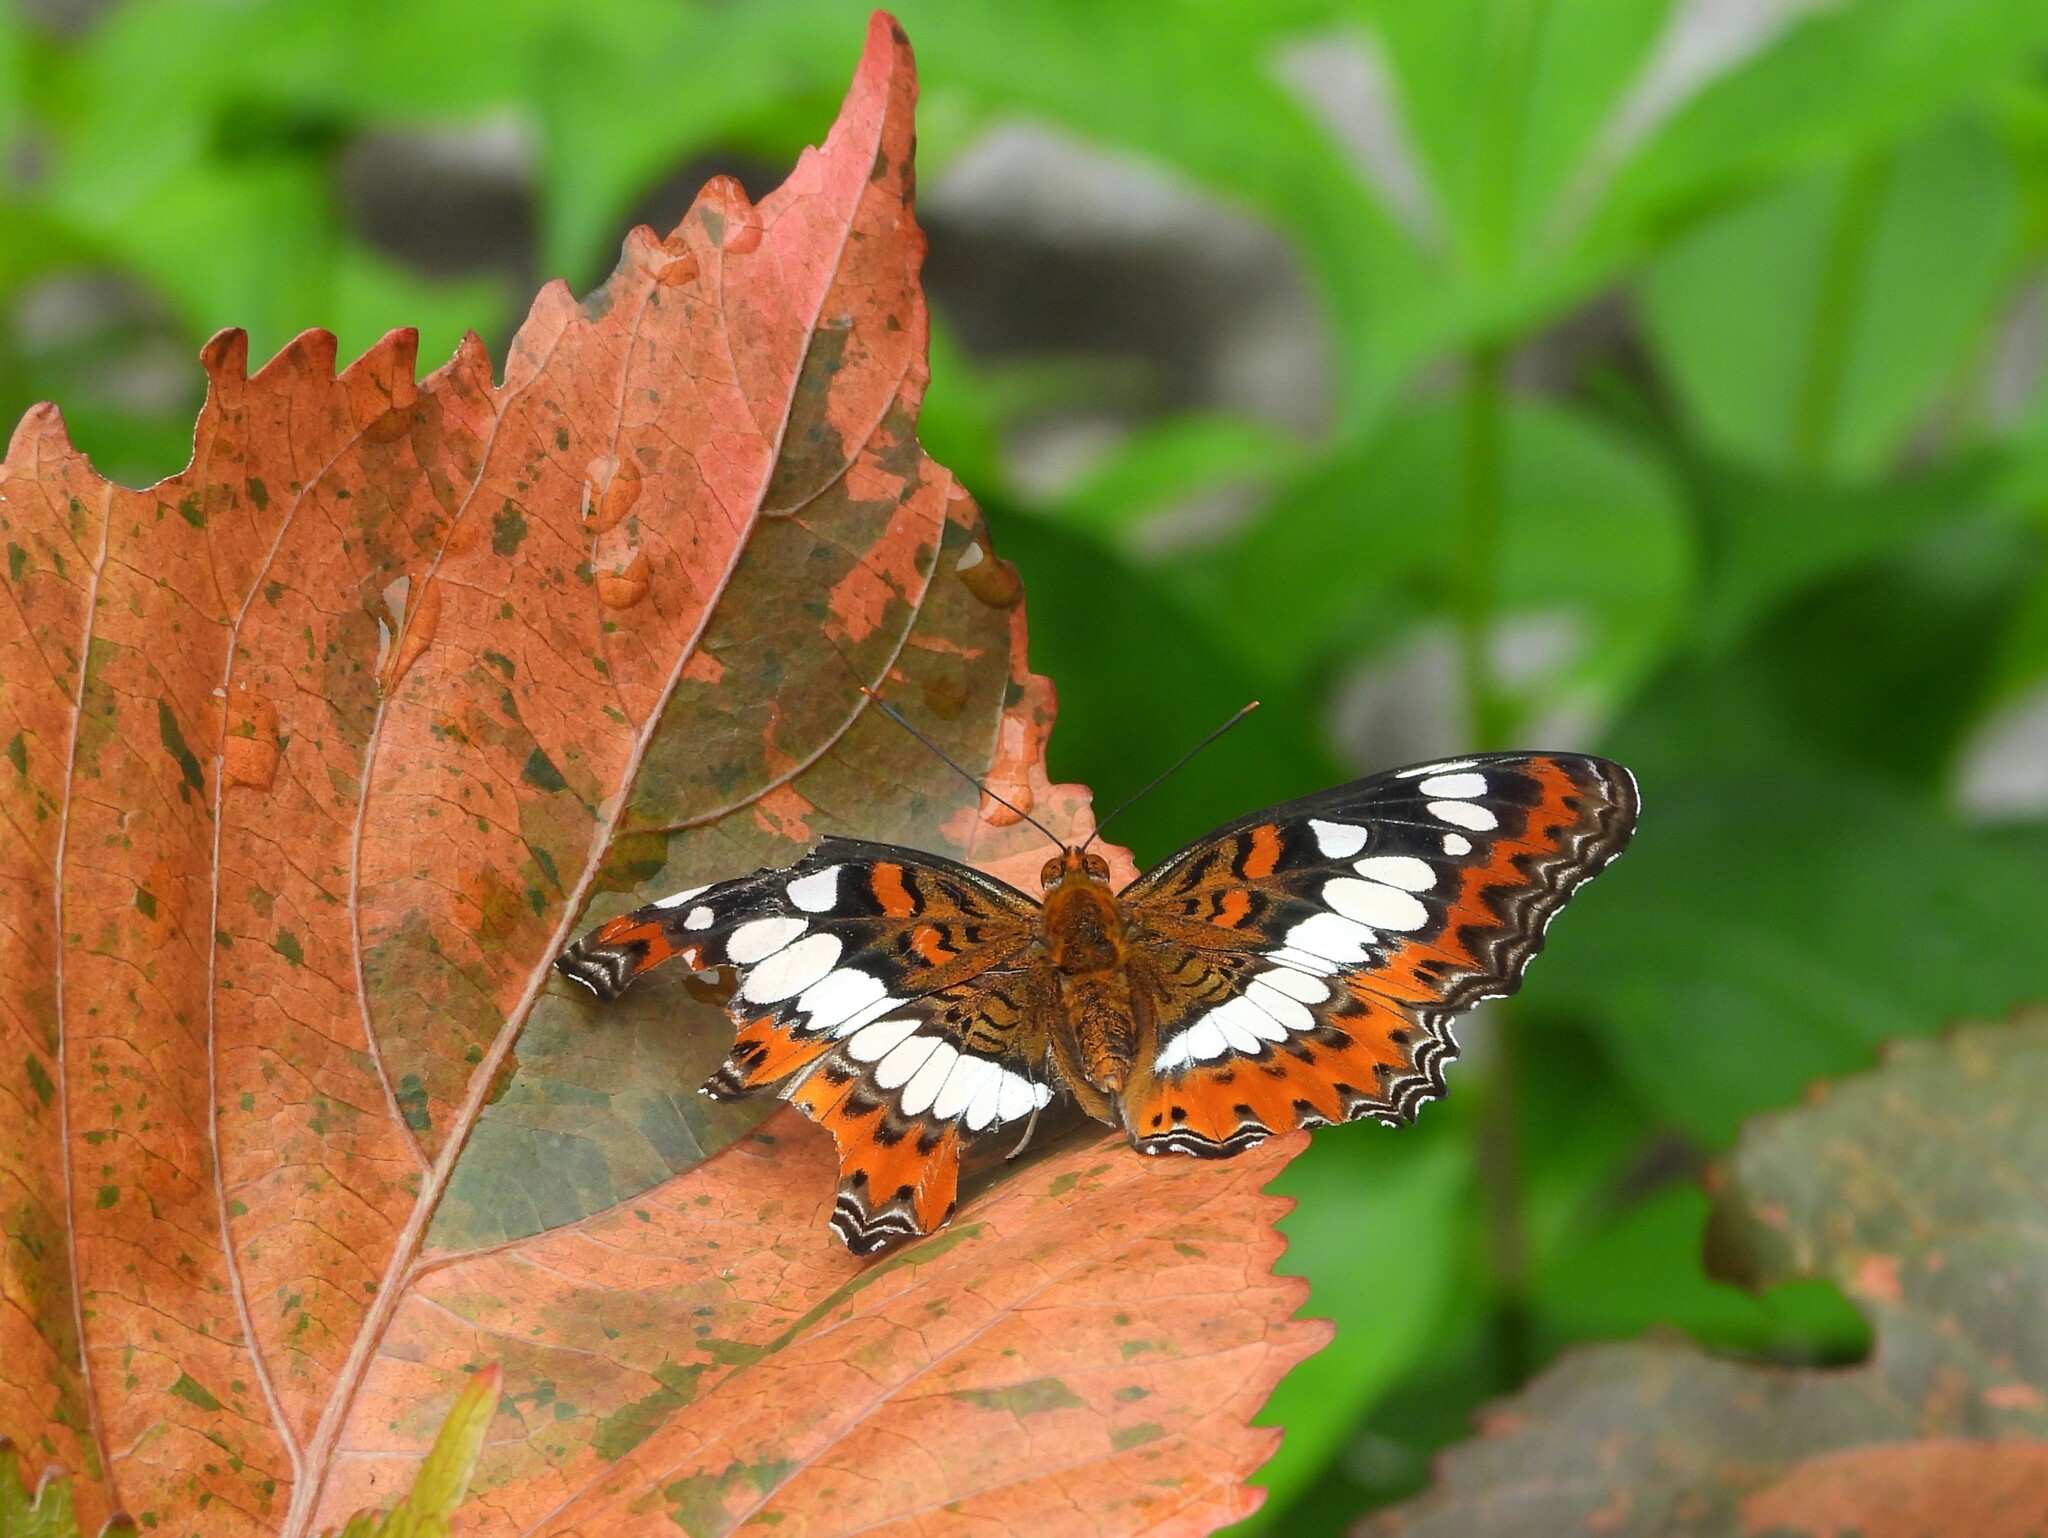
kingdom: Animalia
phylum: Arthropoda
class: Insecta
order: Lepidoptera
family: Nymphalidae
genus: Limenitis
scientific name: Limenitis Moduza procris
